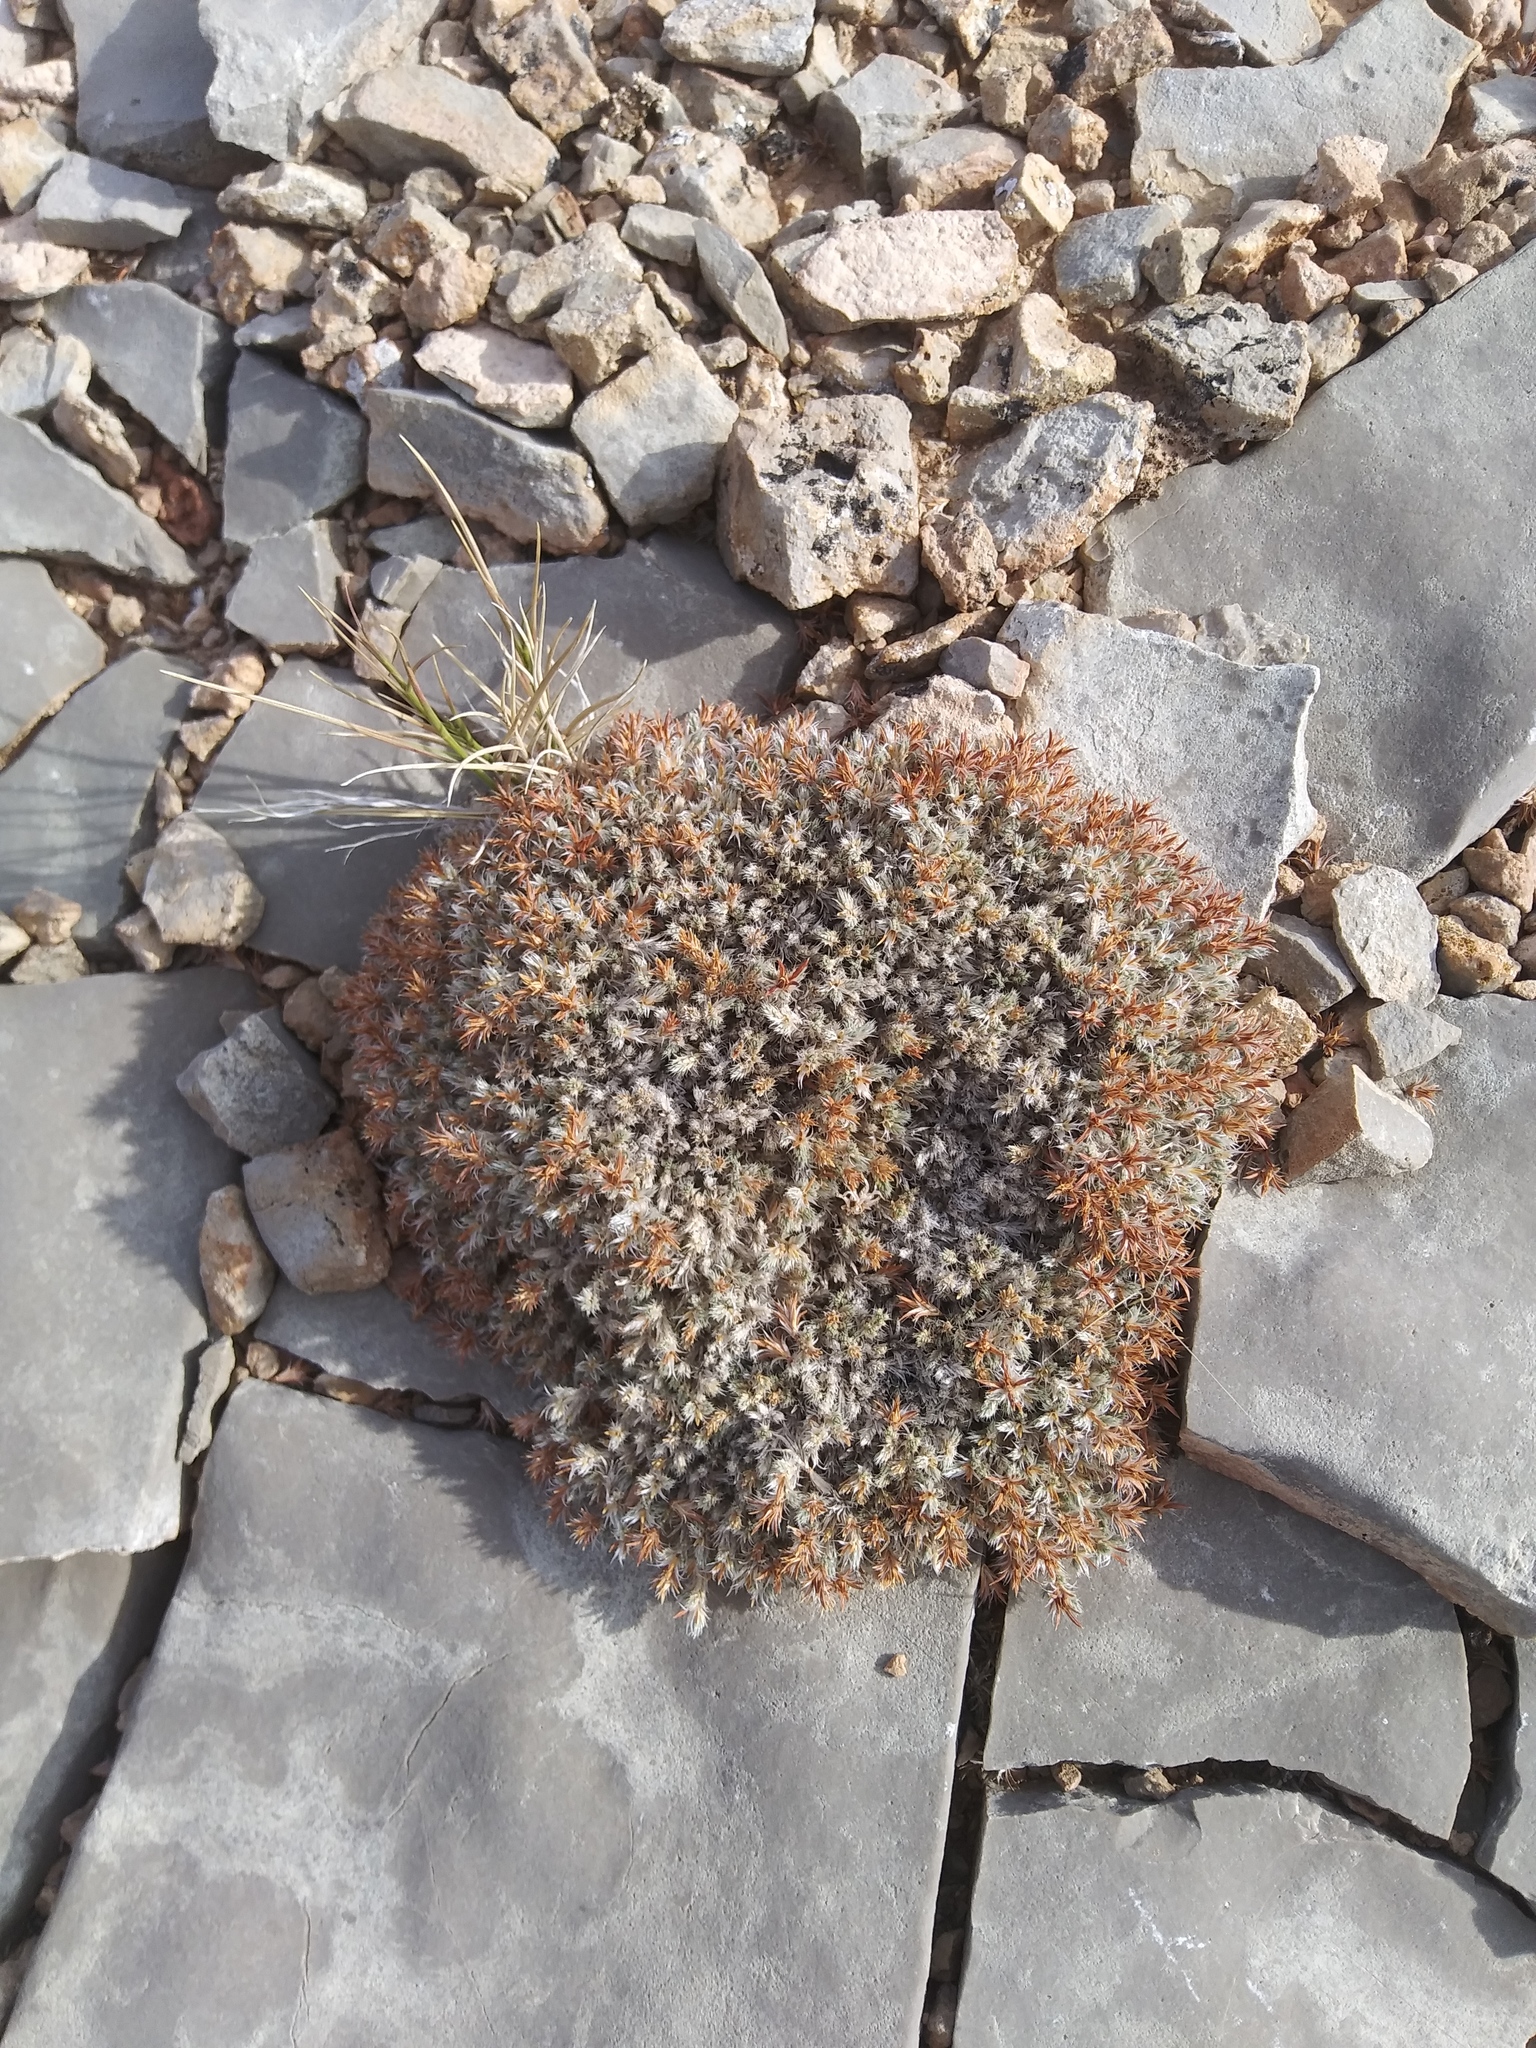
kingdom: Plantae
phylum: Tracheophyta
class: Magnoliopsida
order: Caryophyllales
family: Caryophyllaceae
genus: Paronychia
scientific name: Paronychia sessiliflora
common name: Creeping nailwort
